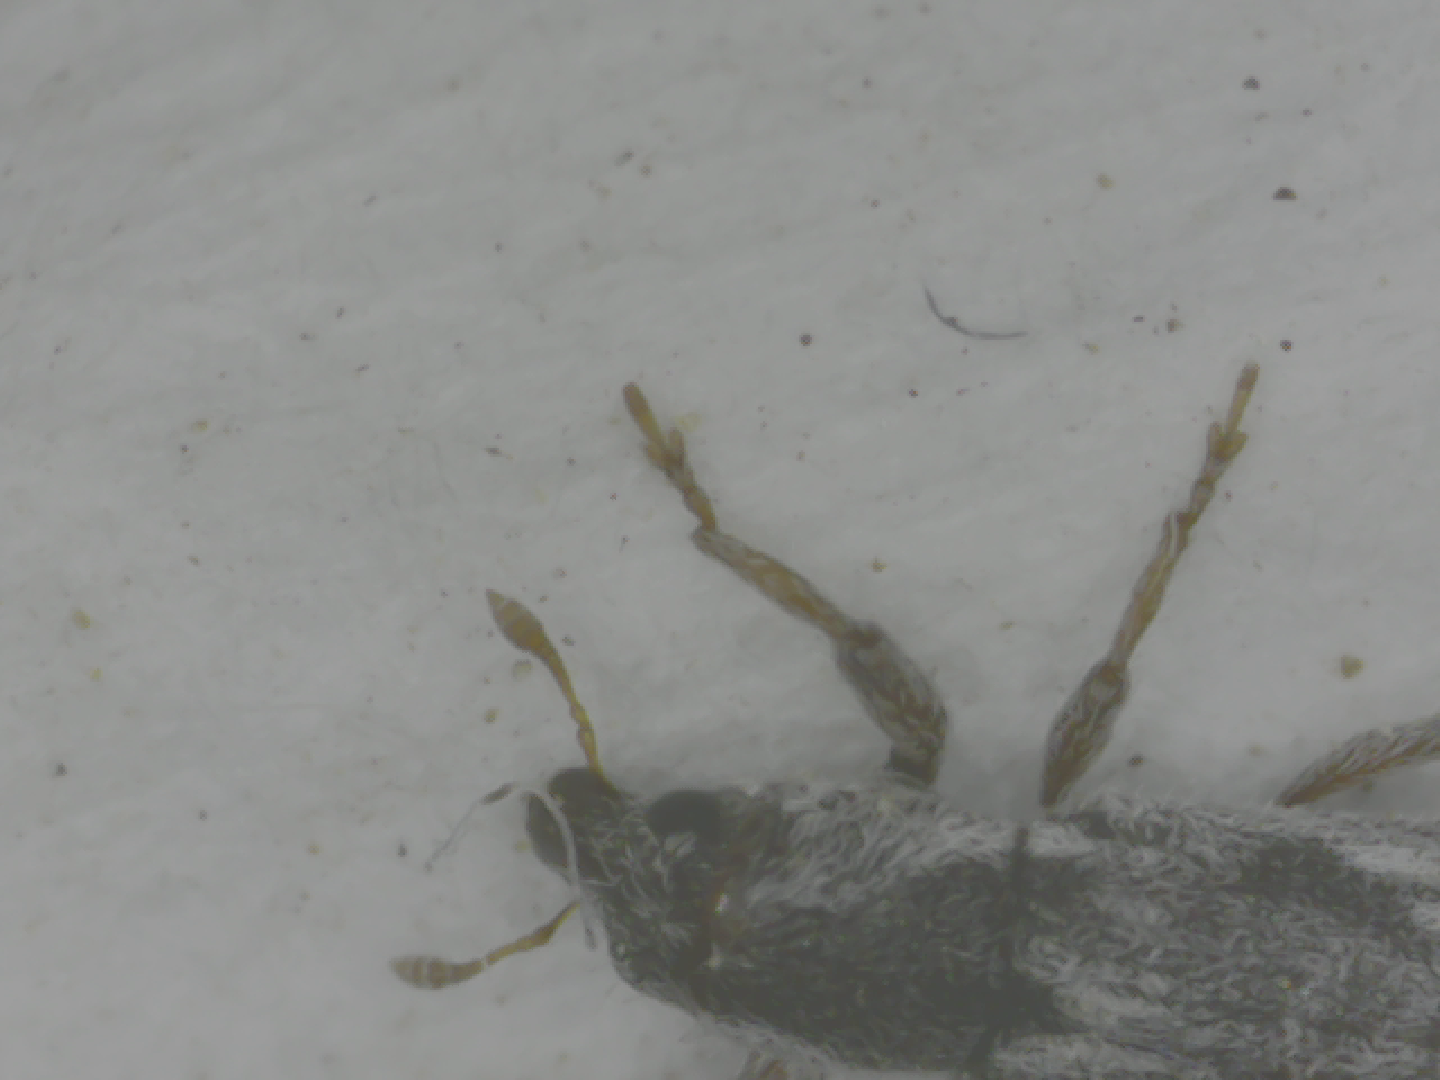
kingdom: Animalia
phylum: Arthropoda
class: Insecta
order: Coleoptera
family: Curculionidae
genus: Microlarinus
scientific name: Microlarinus lypriformis
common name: Weevil
